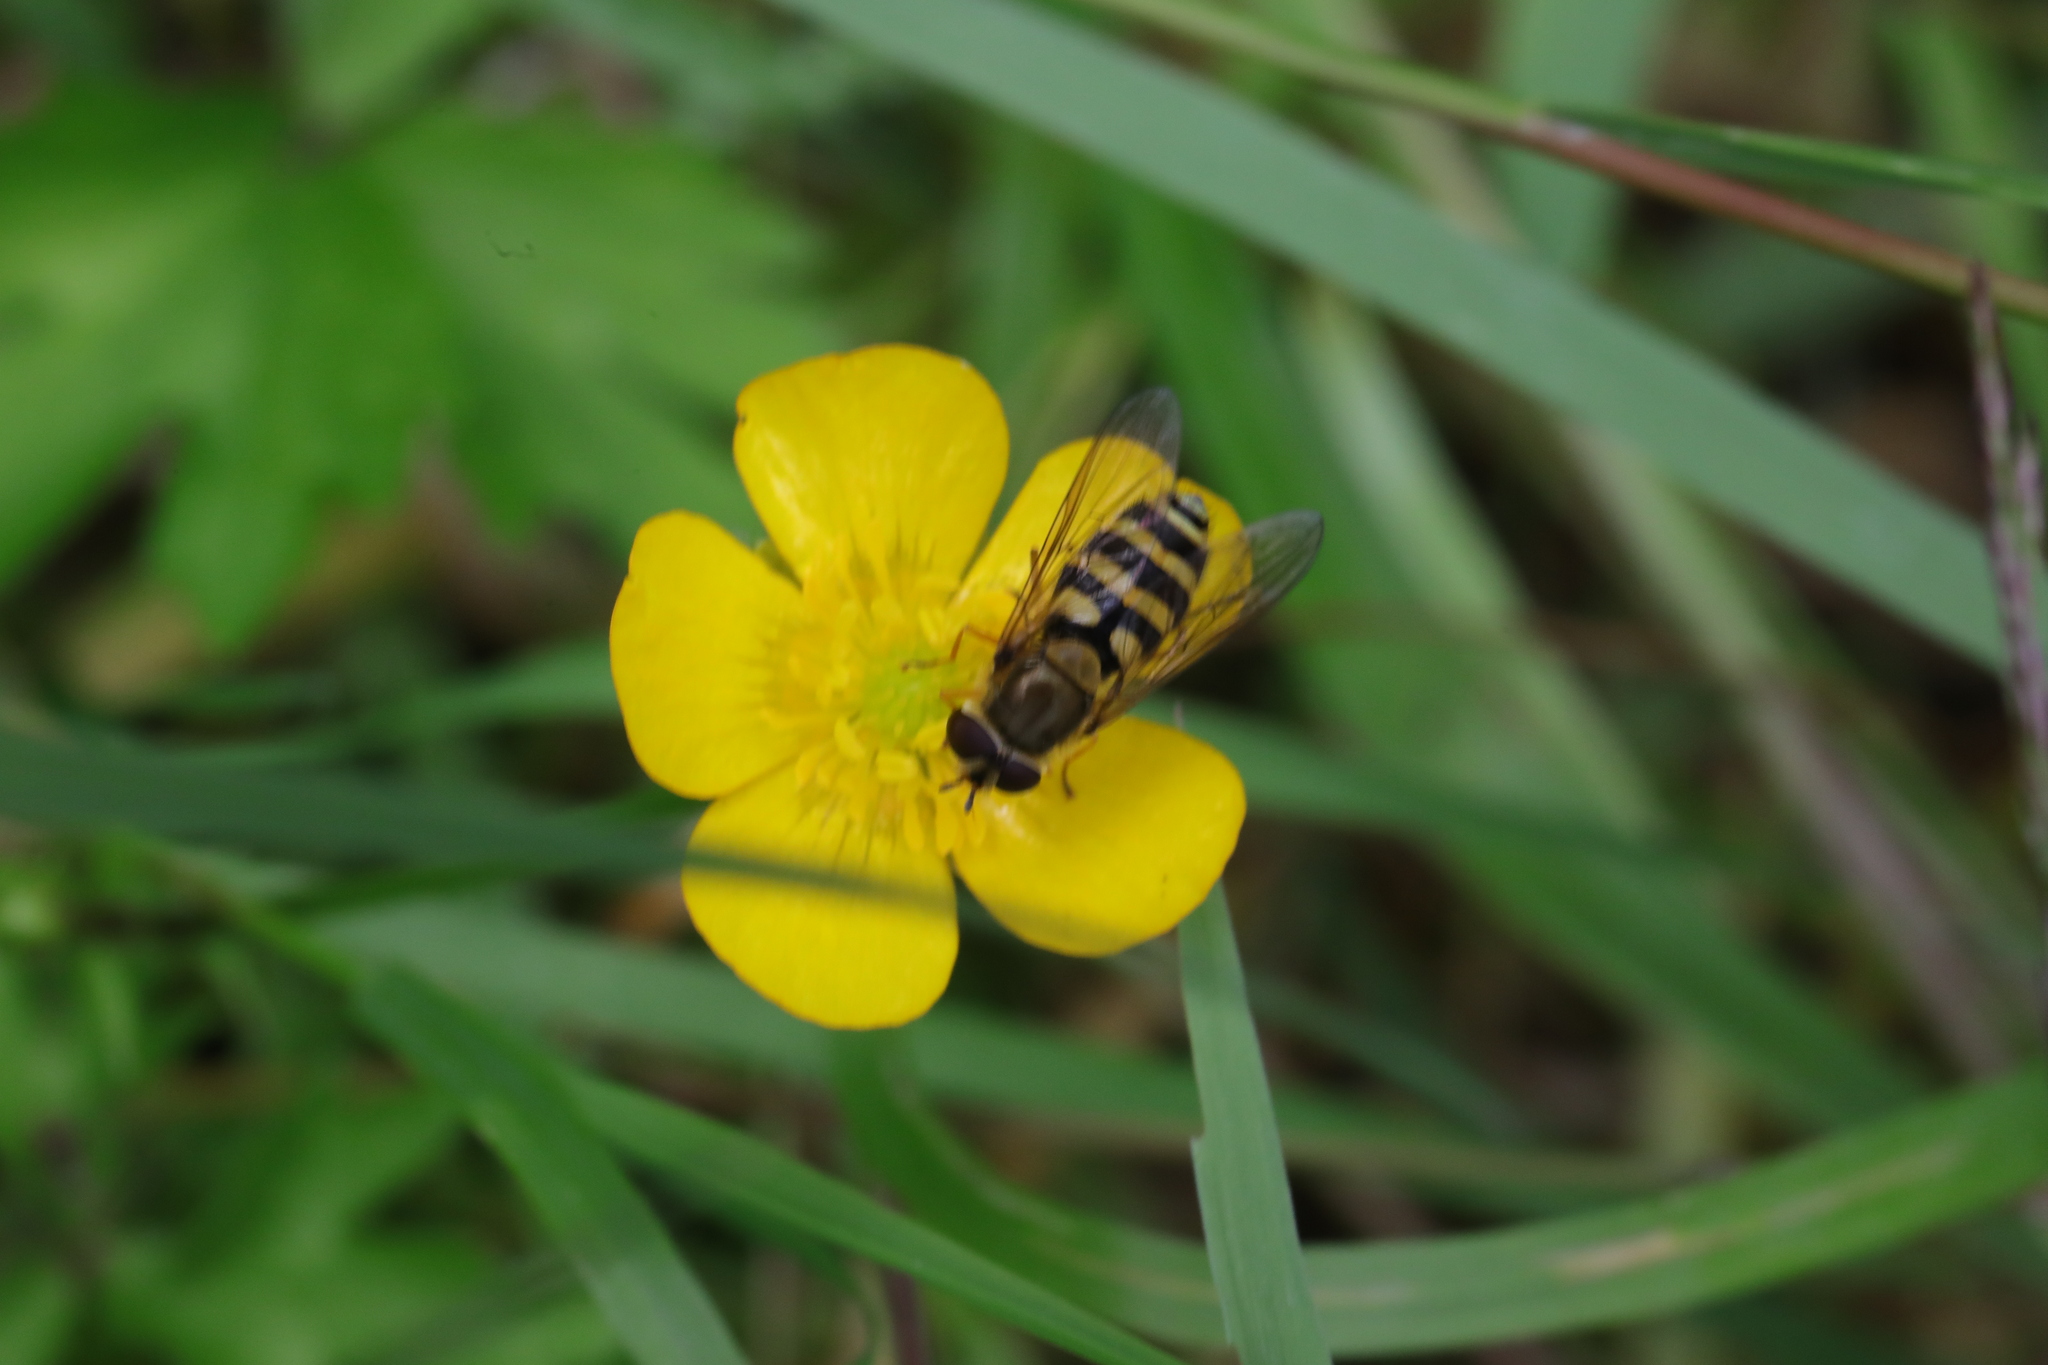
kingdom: Animalia
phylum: Arthropoda
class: Insecta
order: Diptera
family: Syrphidae
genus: Syrphus
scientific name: Syrphus
